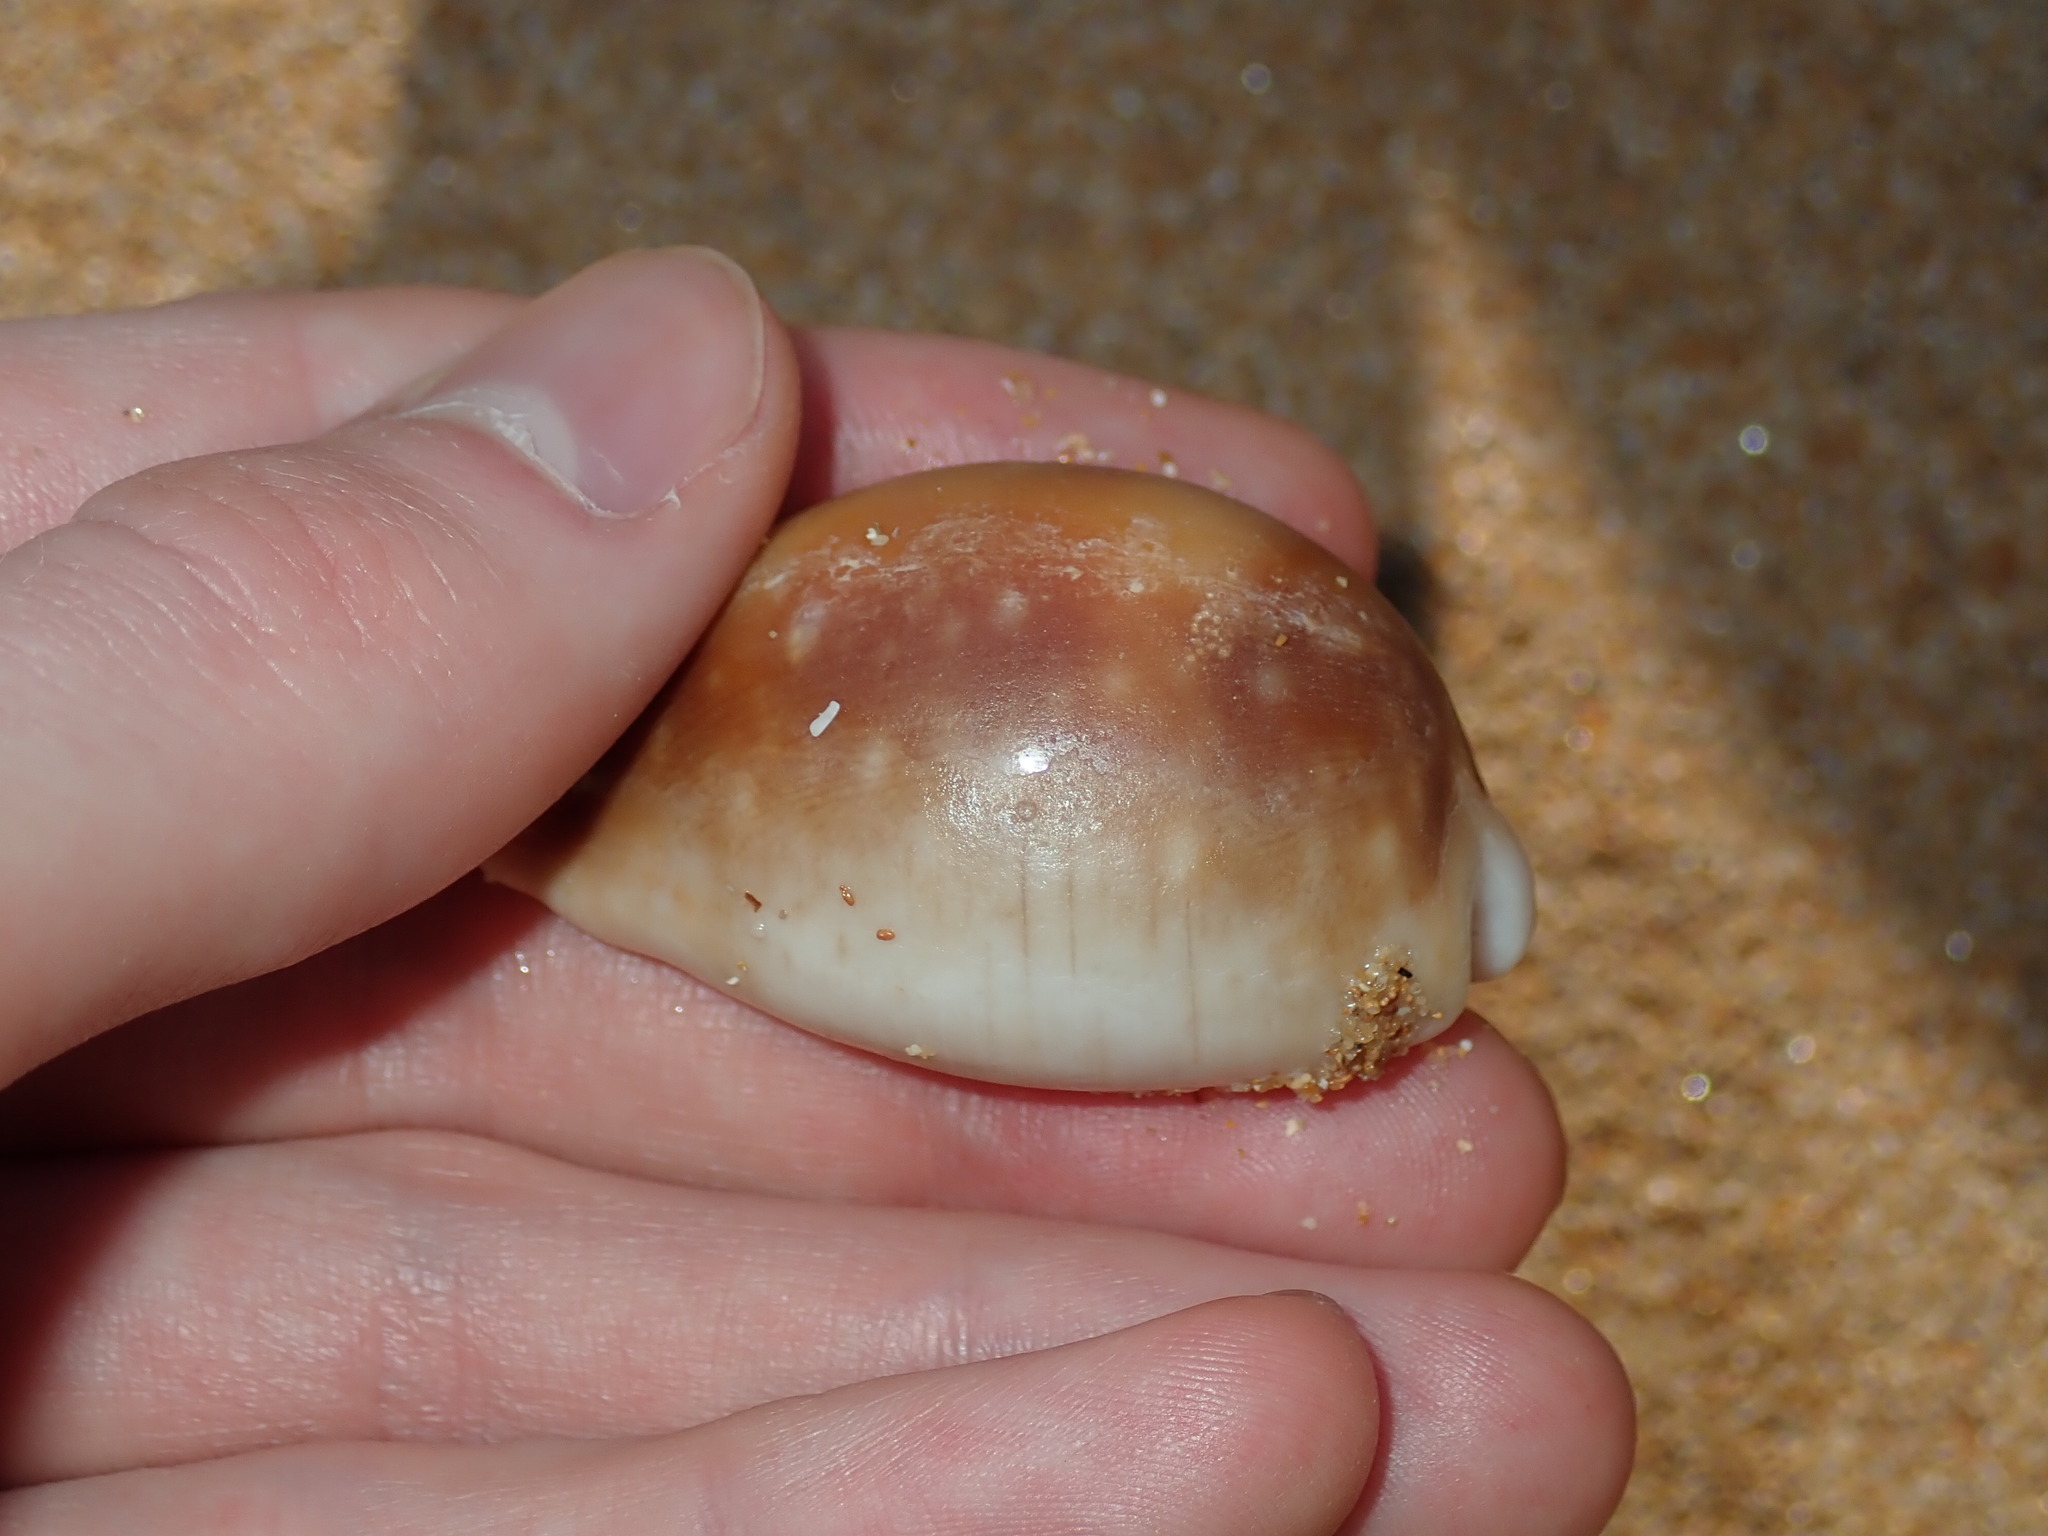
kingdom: Animalia
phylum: Mollusca
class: Gastropoda
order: Littorinimorpha
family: Cypraeidae
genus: Lyncina
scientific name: Lyncina vitellus
